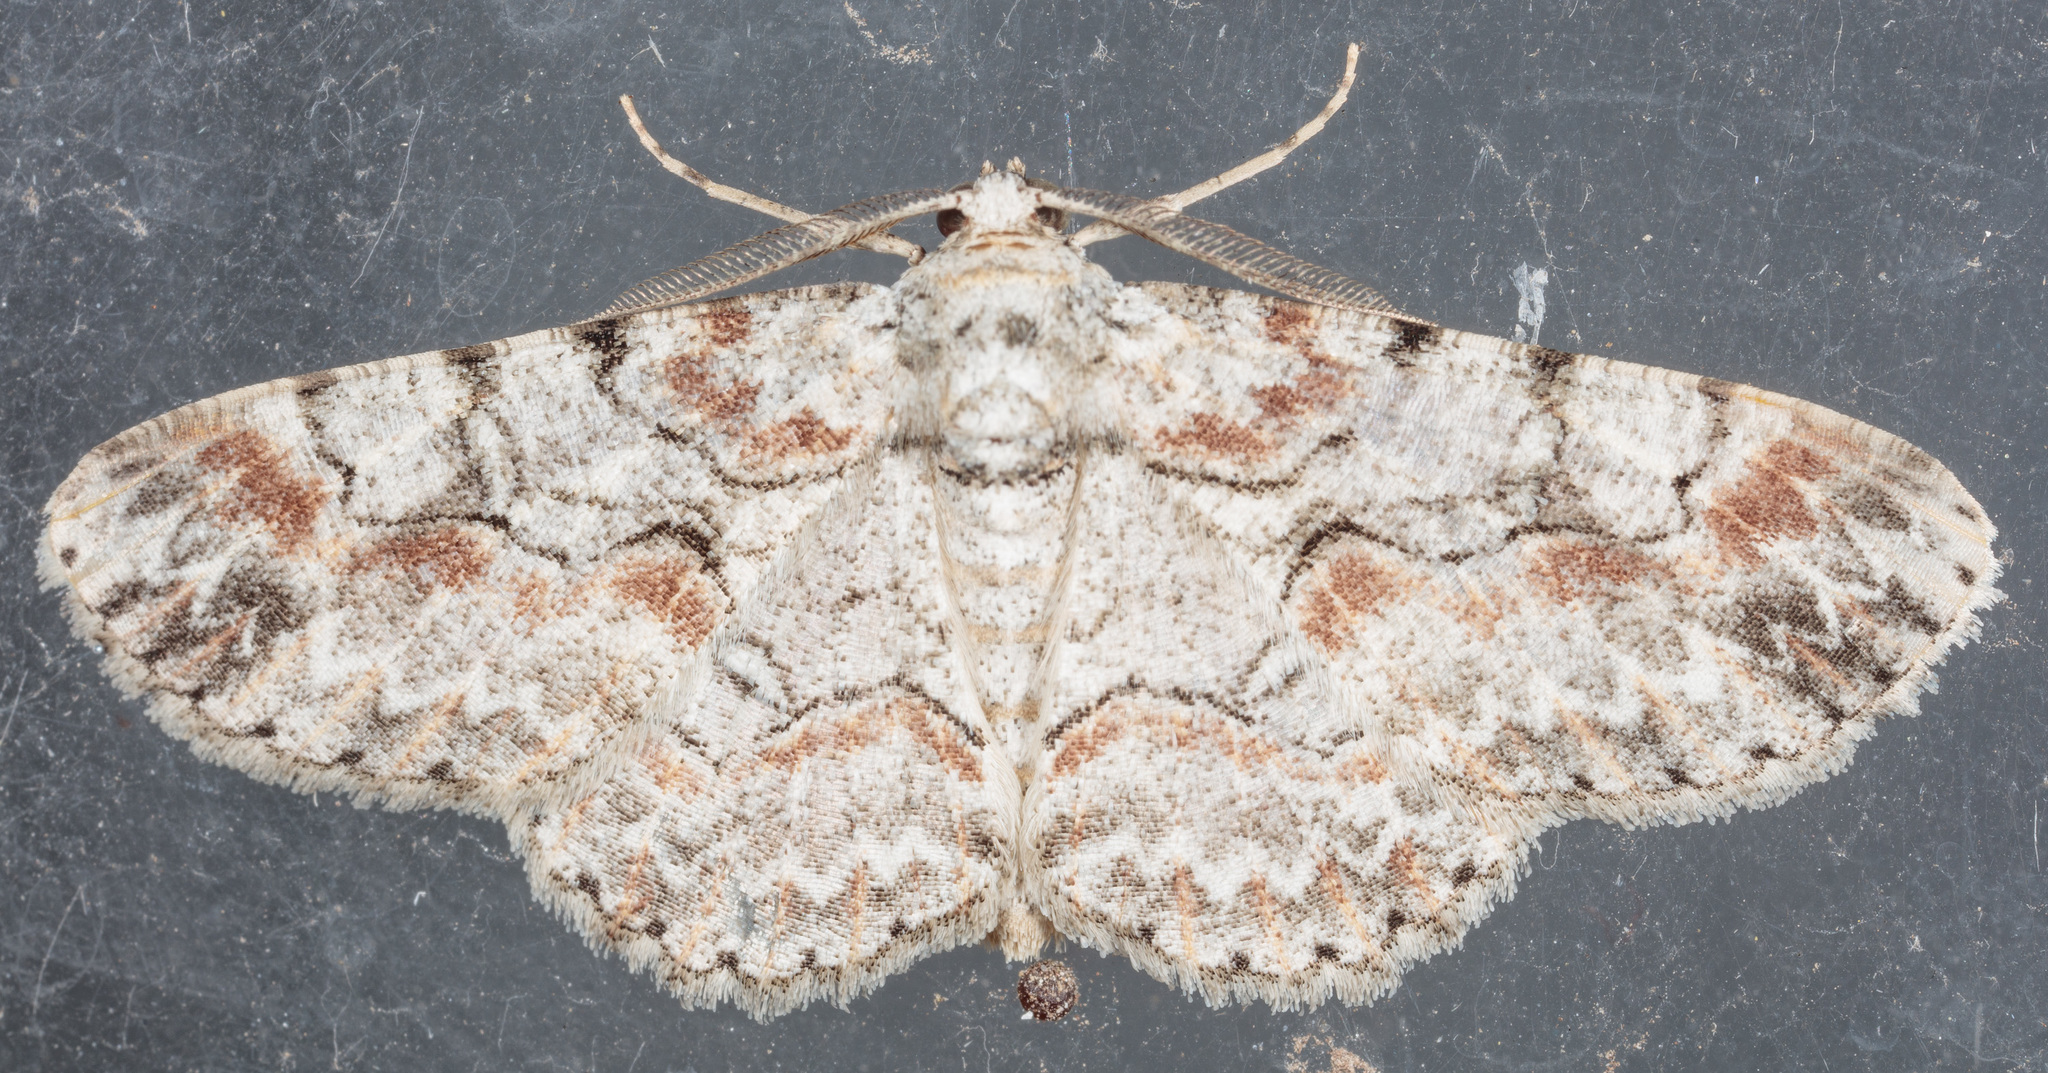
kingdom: Animalia
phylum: Arthropoda
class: Insecta
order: Lepidoptera
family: Geometridae
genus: Iridopsis
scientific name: Iridopsis defectaria
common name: Brown-shaded gray
